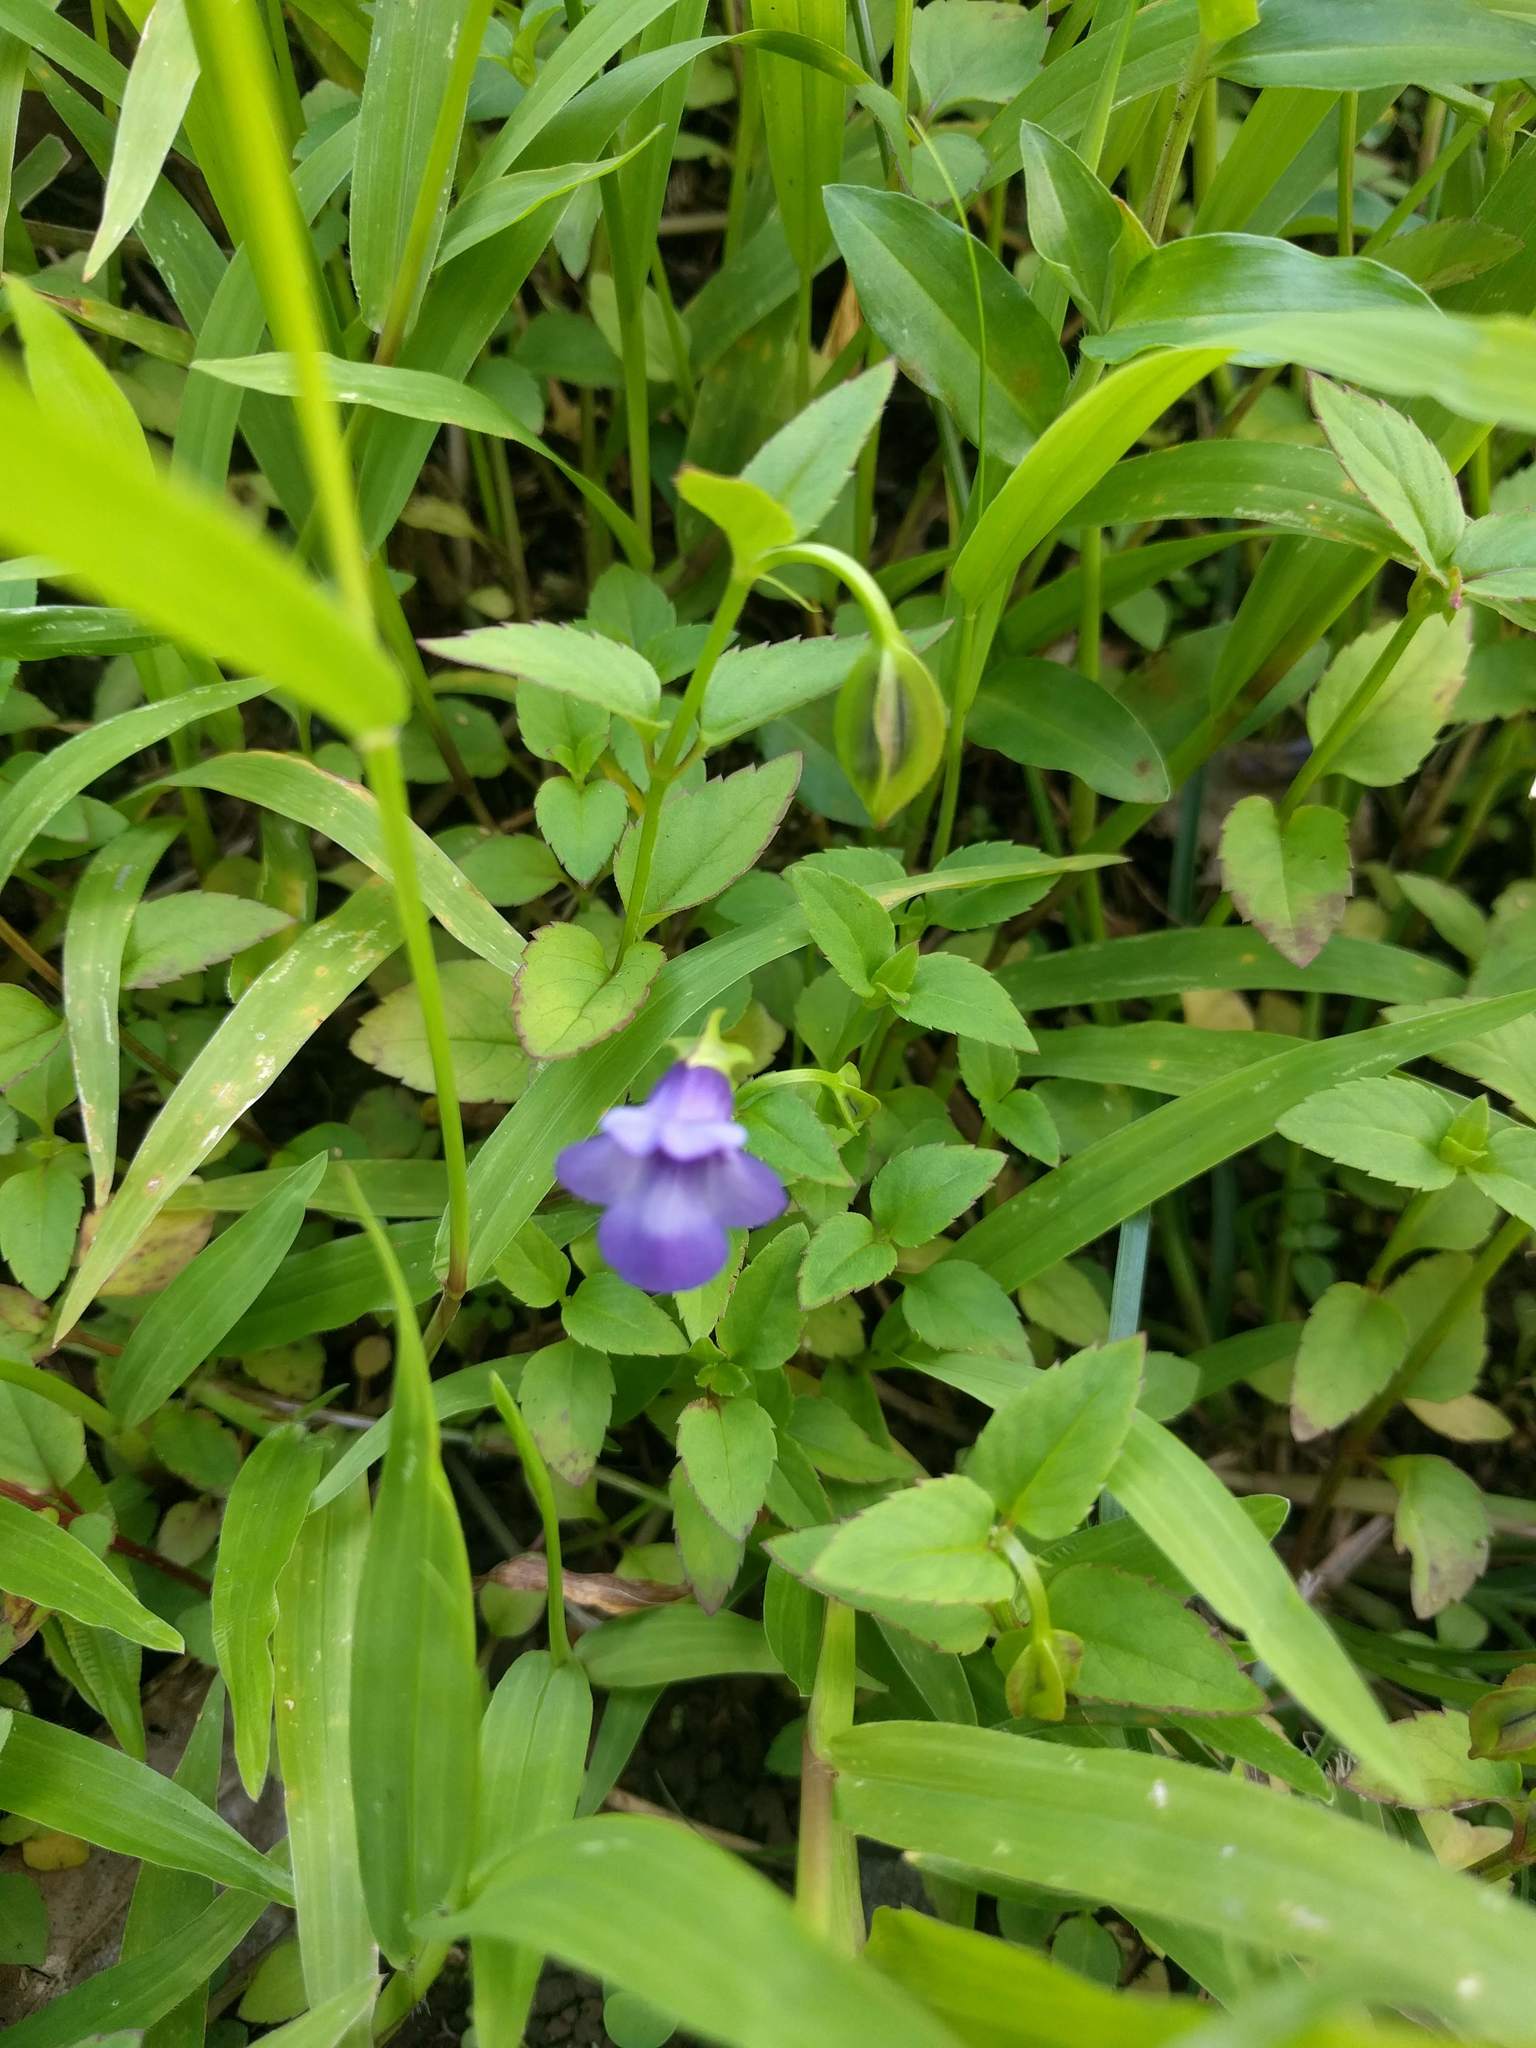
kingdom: Plantae
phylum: Tracheophyta
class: Magnoliopsida
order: Lamiales
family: Linderniaceae
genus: Torenia
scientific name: Torenia asiatica
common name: Wishbone flower
